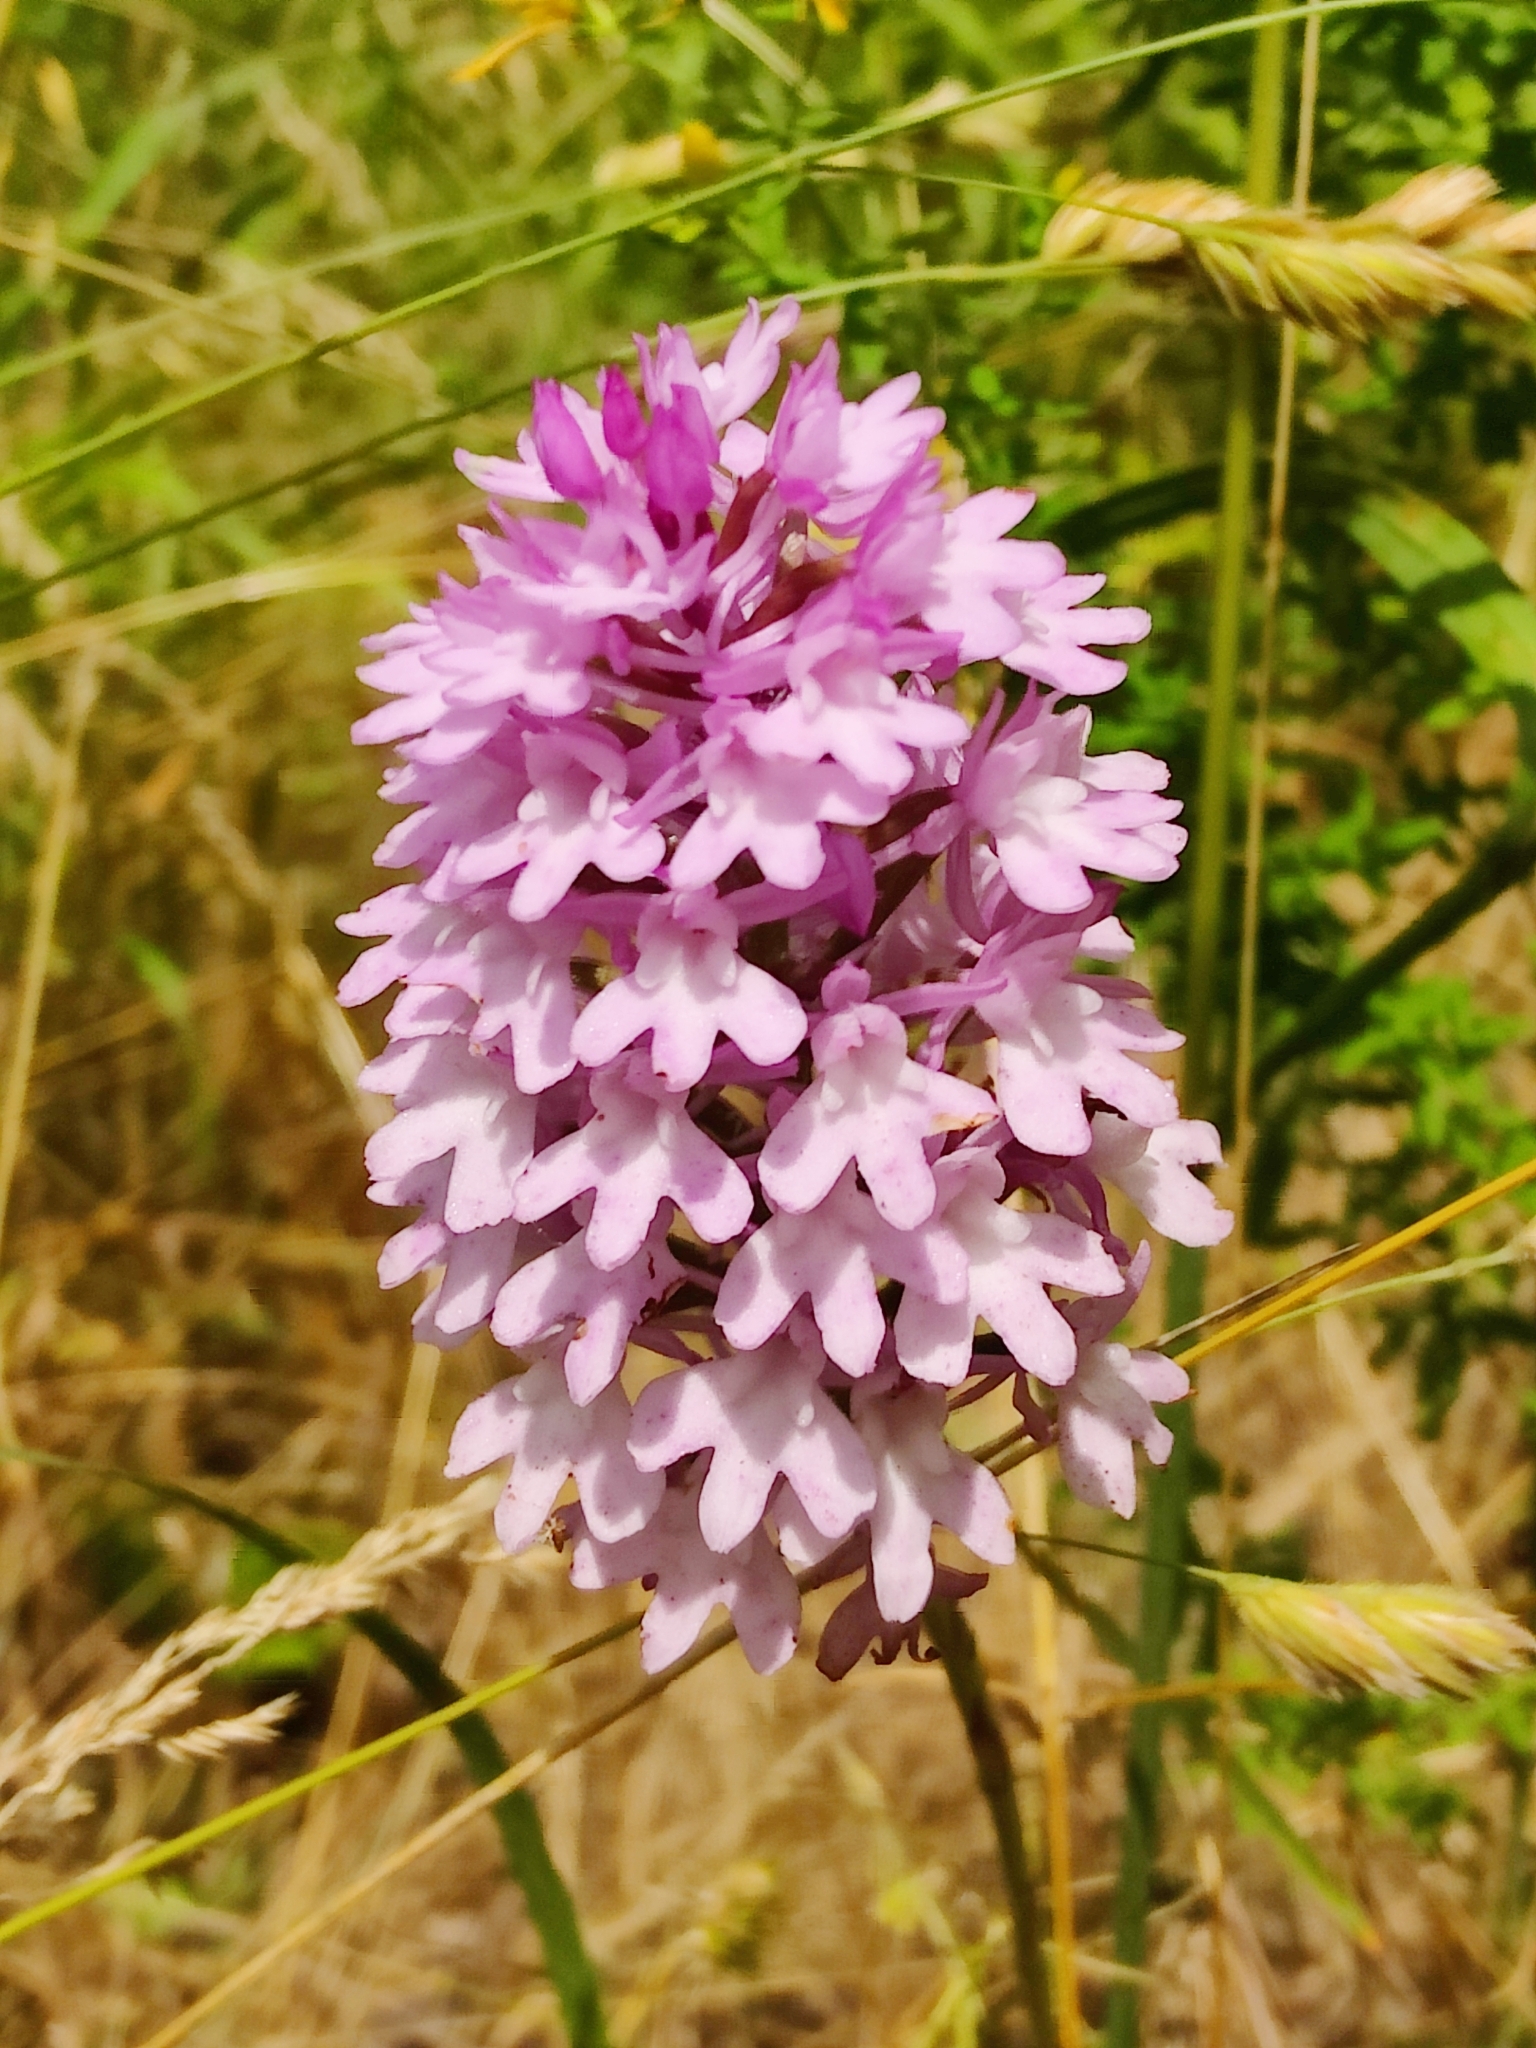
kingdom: Plantae
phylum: Tracheophyta
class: Liliopsida
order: Asparagales
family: Orchidaceae
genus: Anacamptis
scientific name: Anacamptis pyramidalis
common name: Pyramidal orchid
